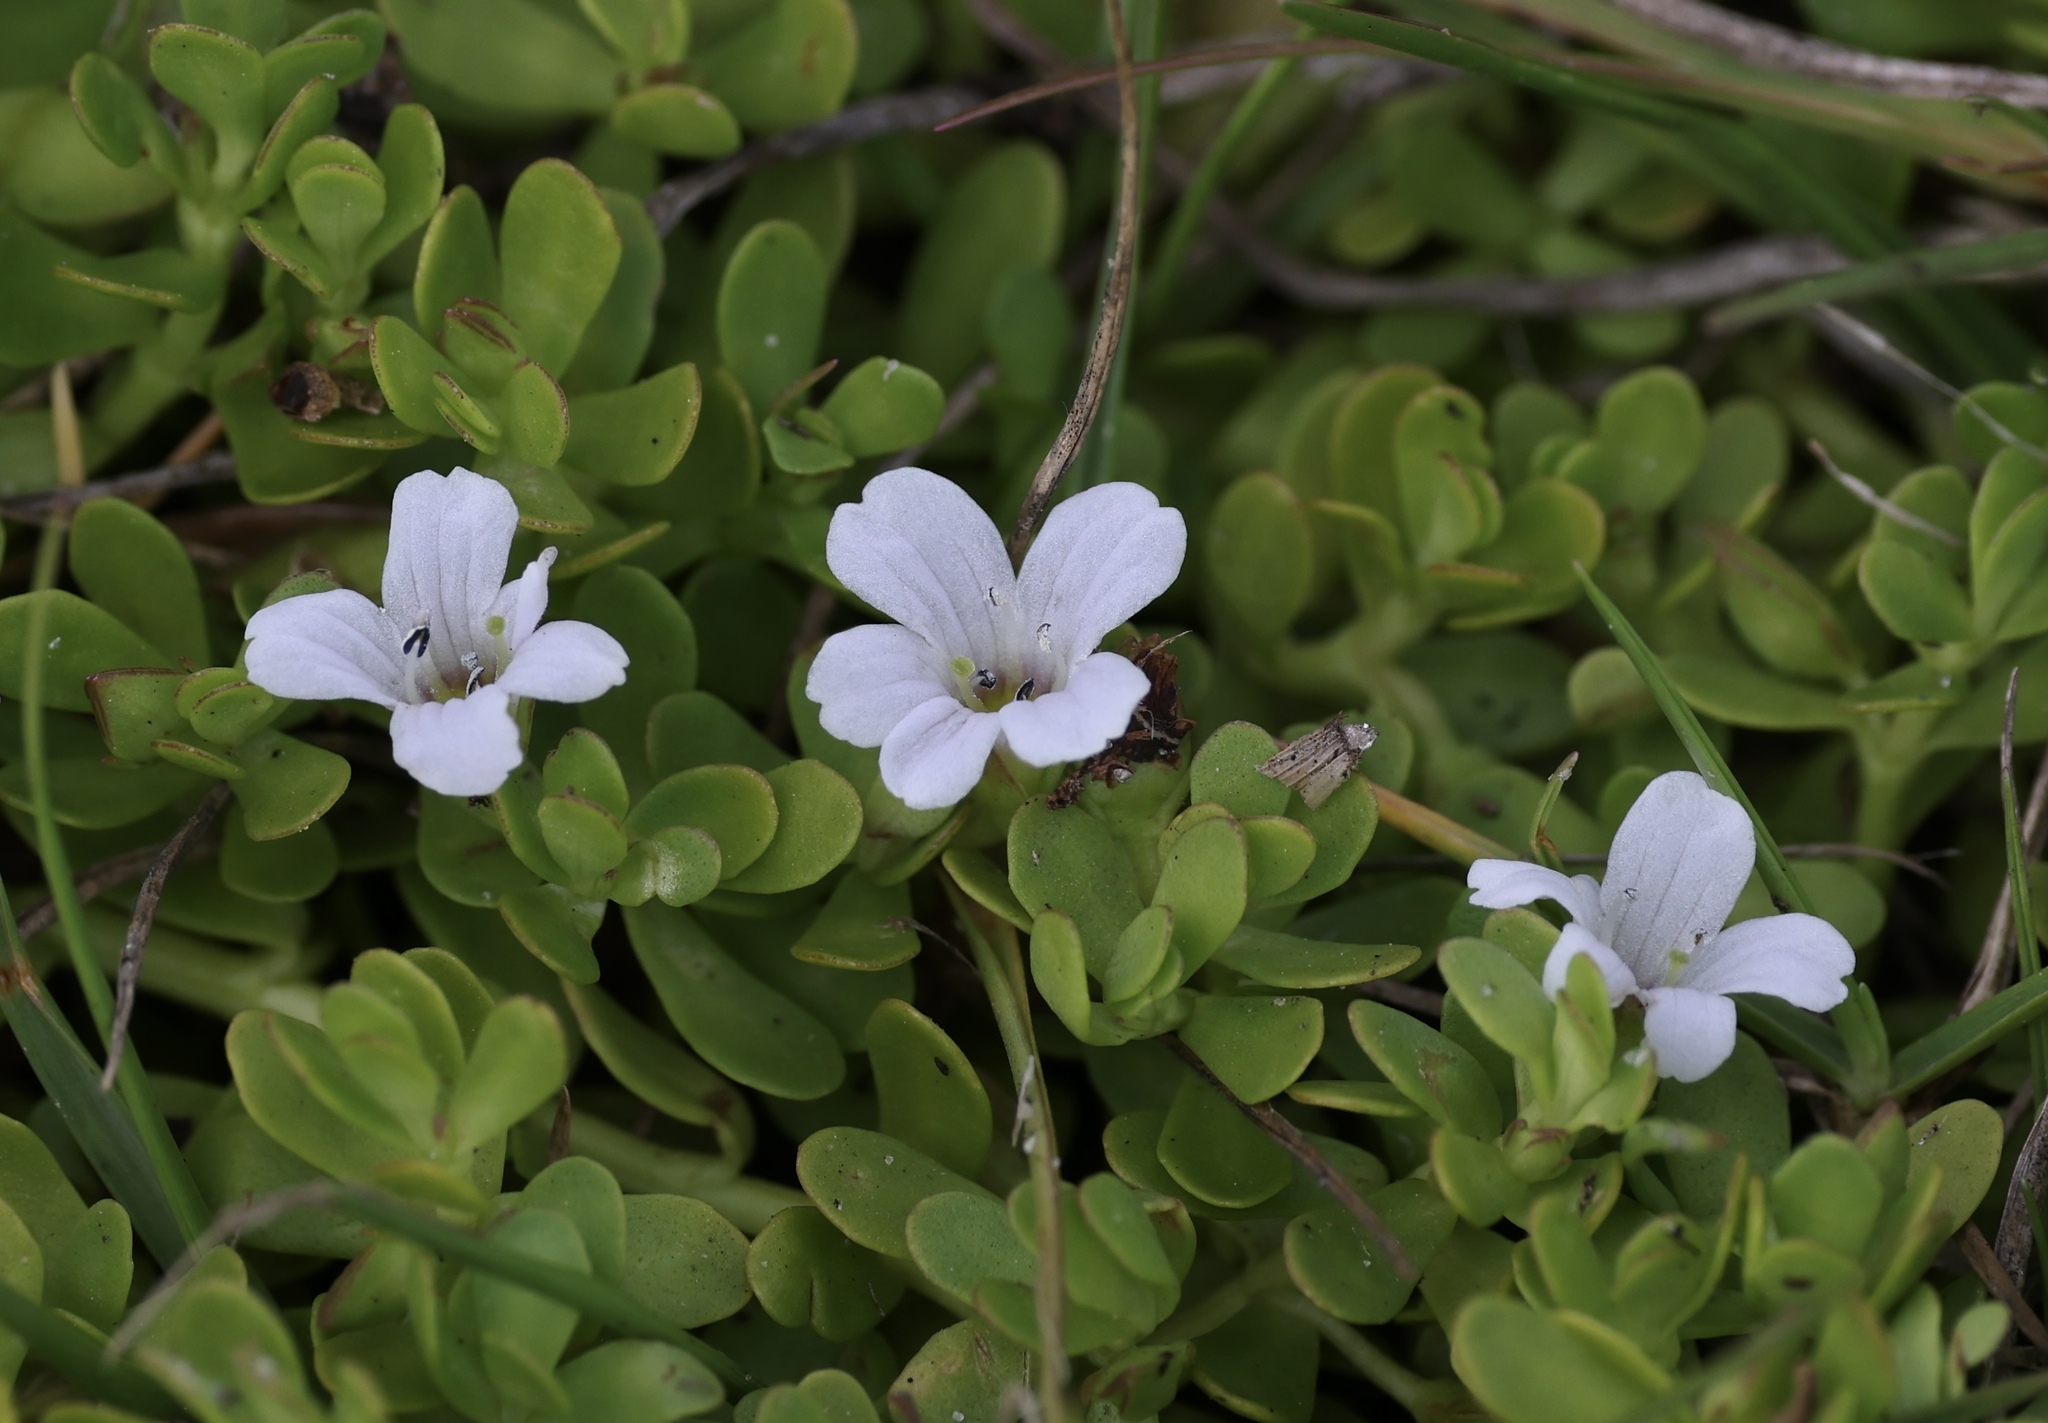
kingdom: Plantae
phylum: Tracheophyta
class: Magnoliopsida
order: Lamiales
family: Plantaginaceae
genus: Bacopa
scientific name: Bacopa monnieri
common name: Indian-pennywort
